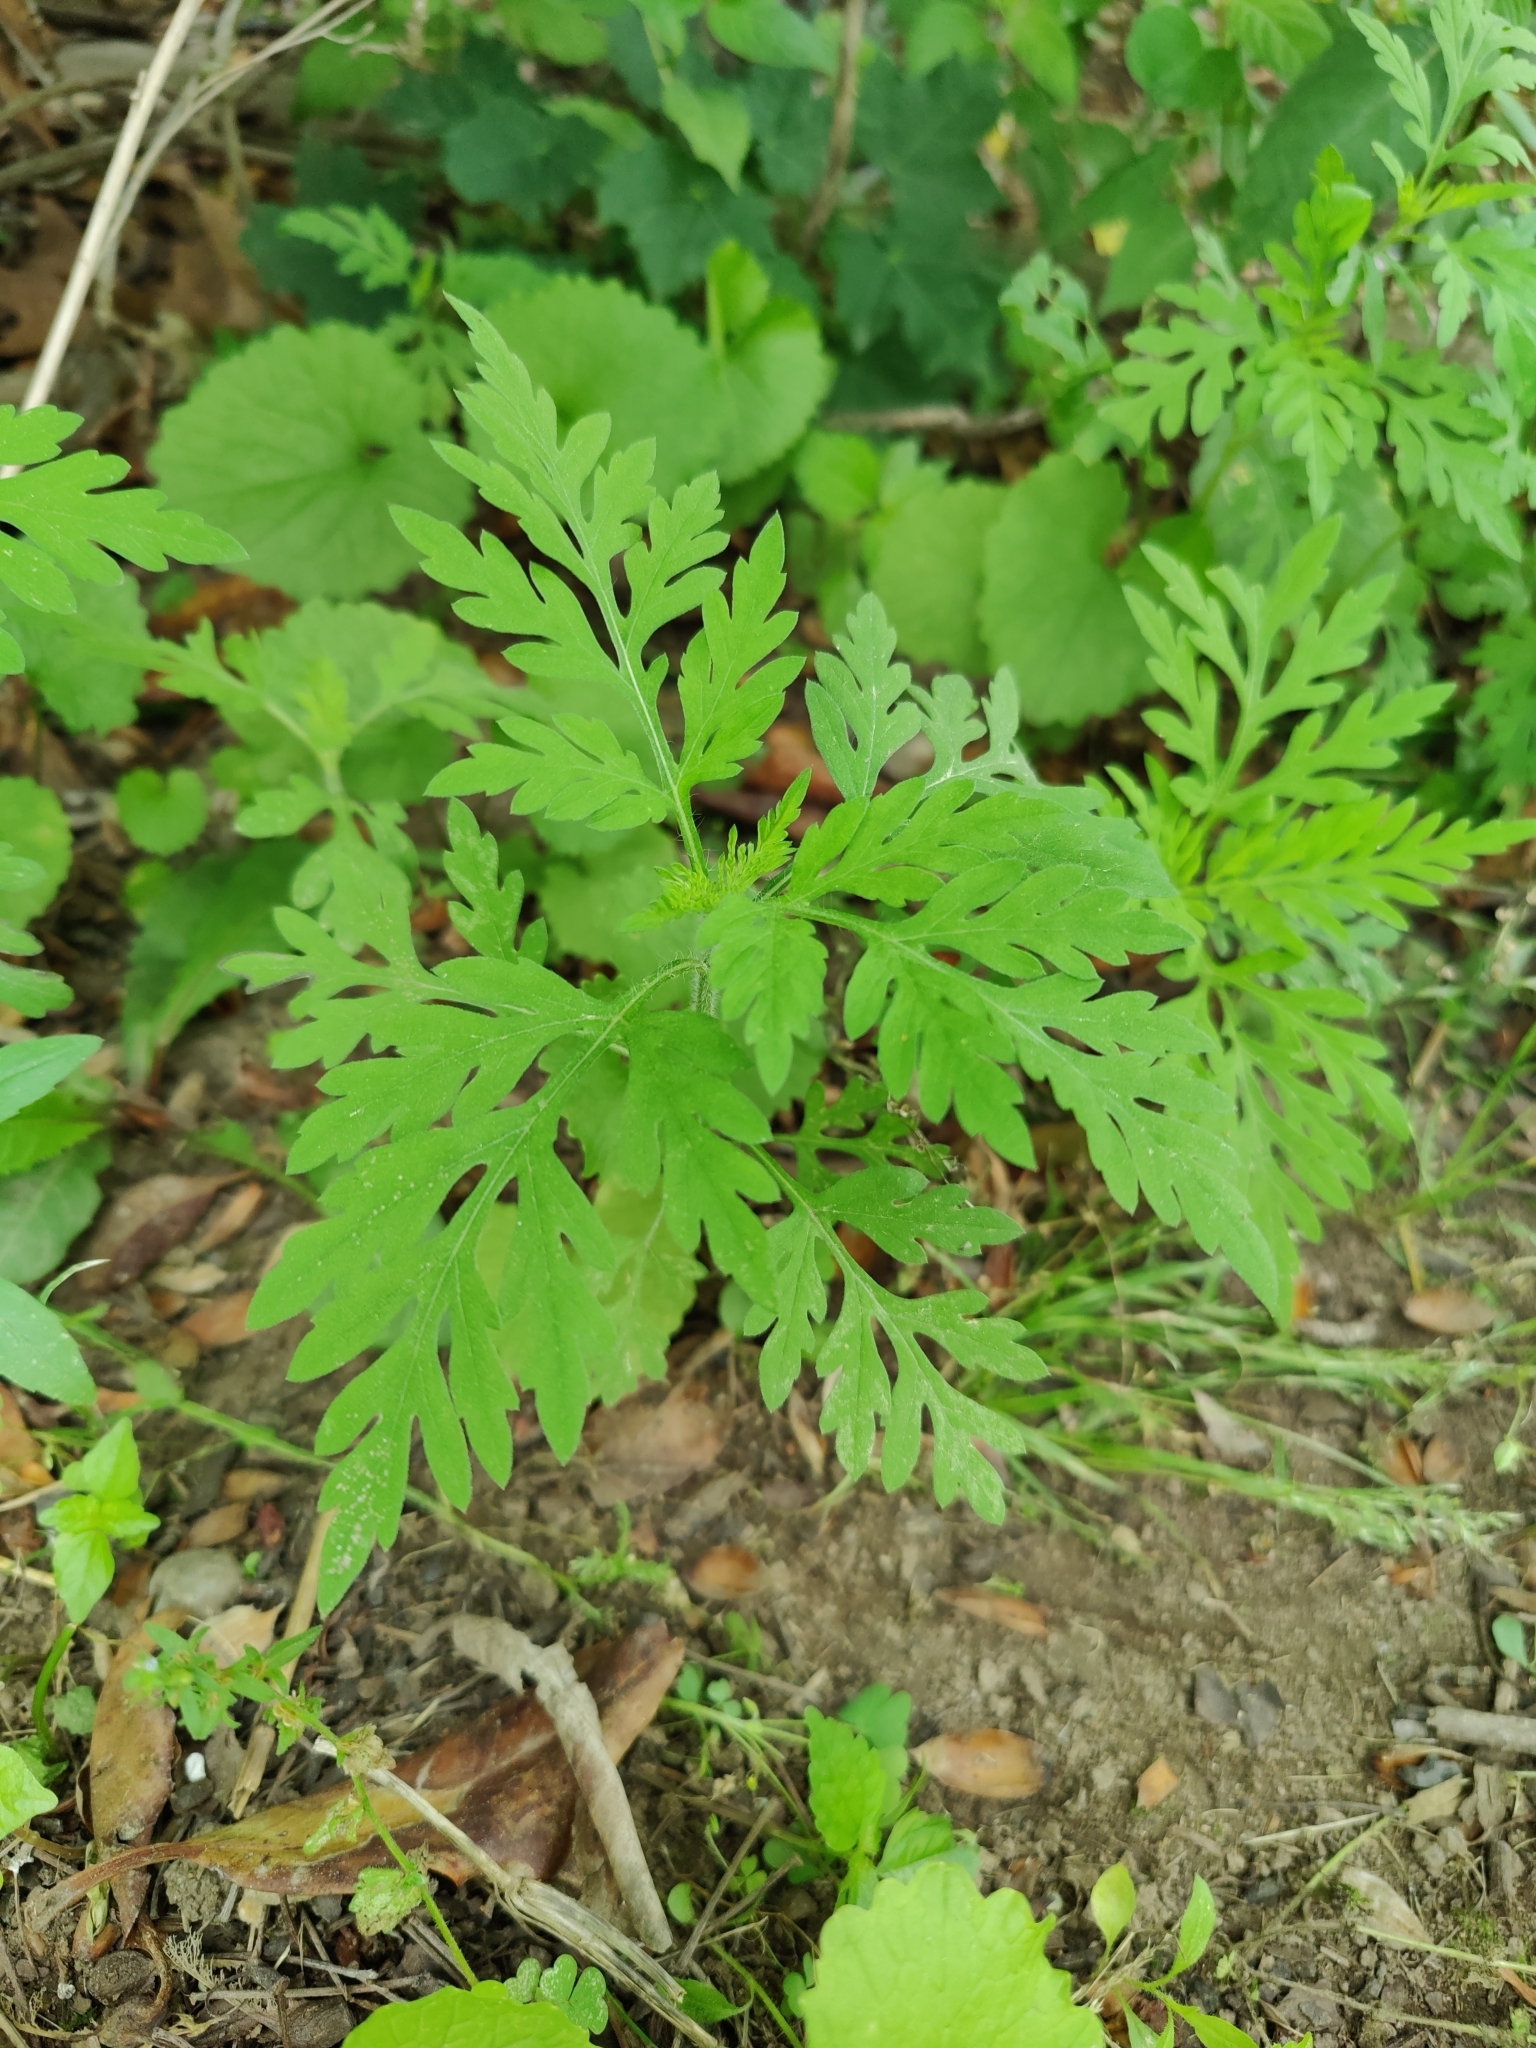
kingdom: Plantae
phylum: Tracheophyta
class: Magnoliopsida
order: Asterales
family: Asteraceae
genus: Ambrosia
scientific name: Ambrosia artemisiifolia
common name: Annual ragweed
